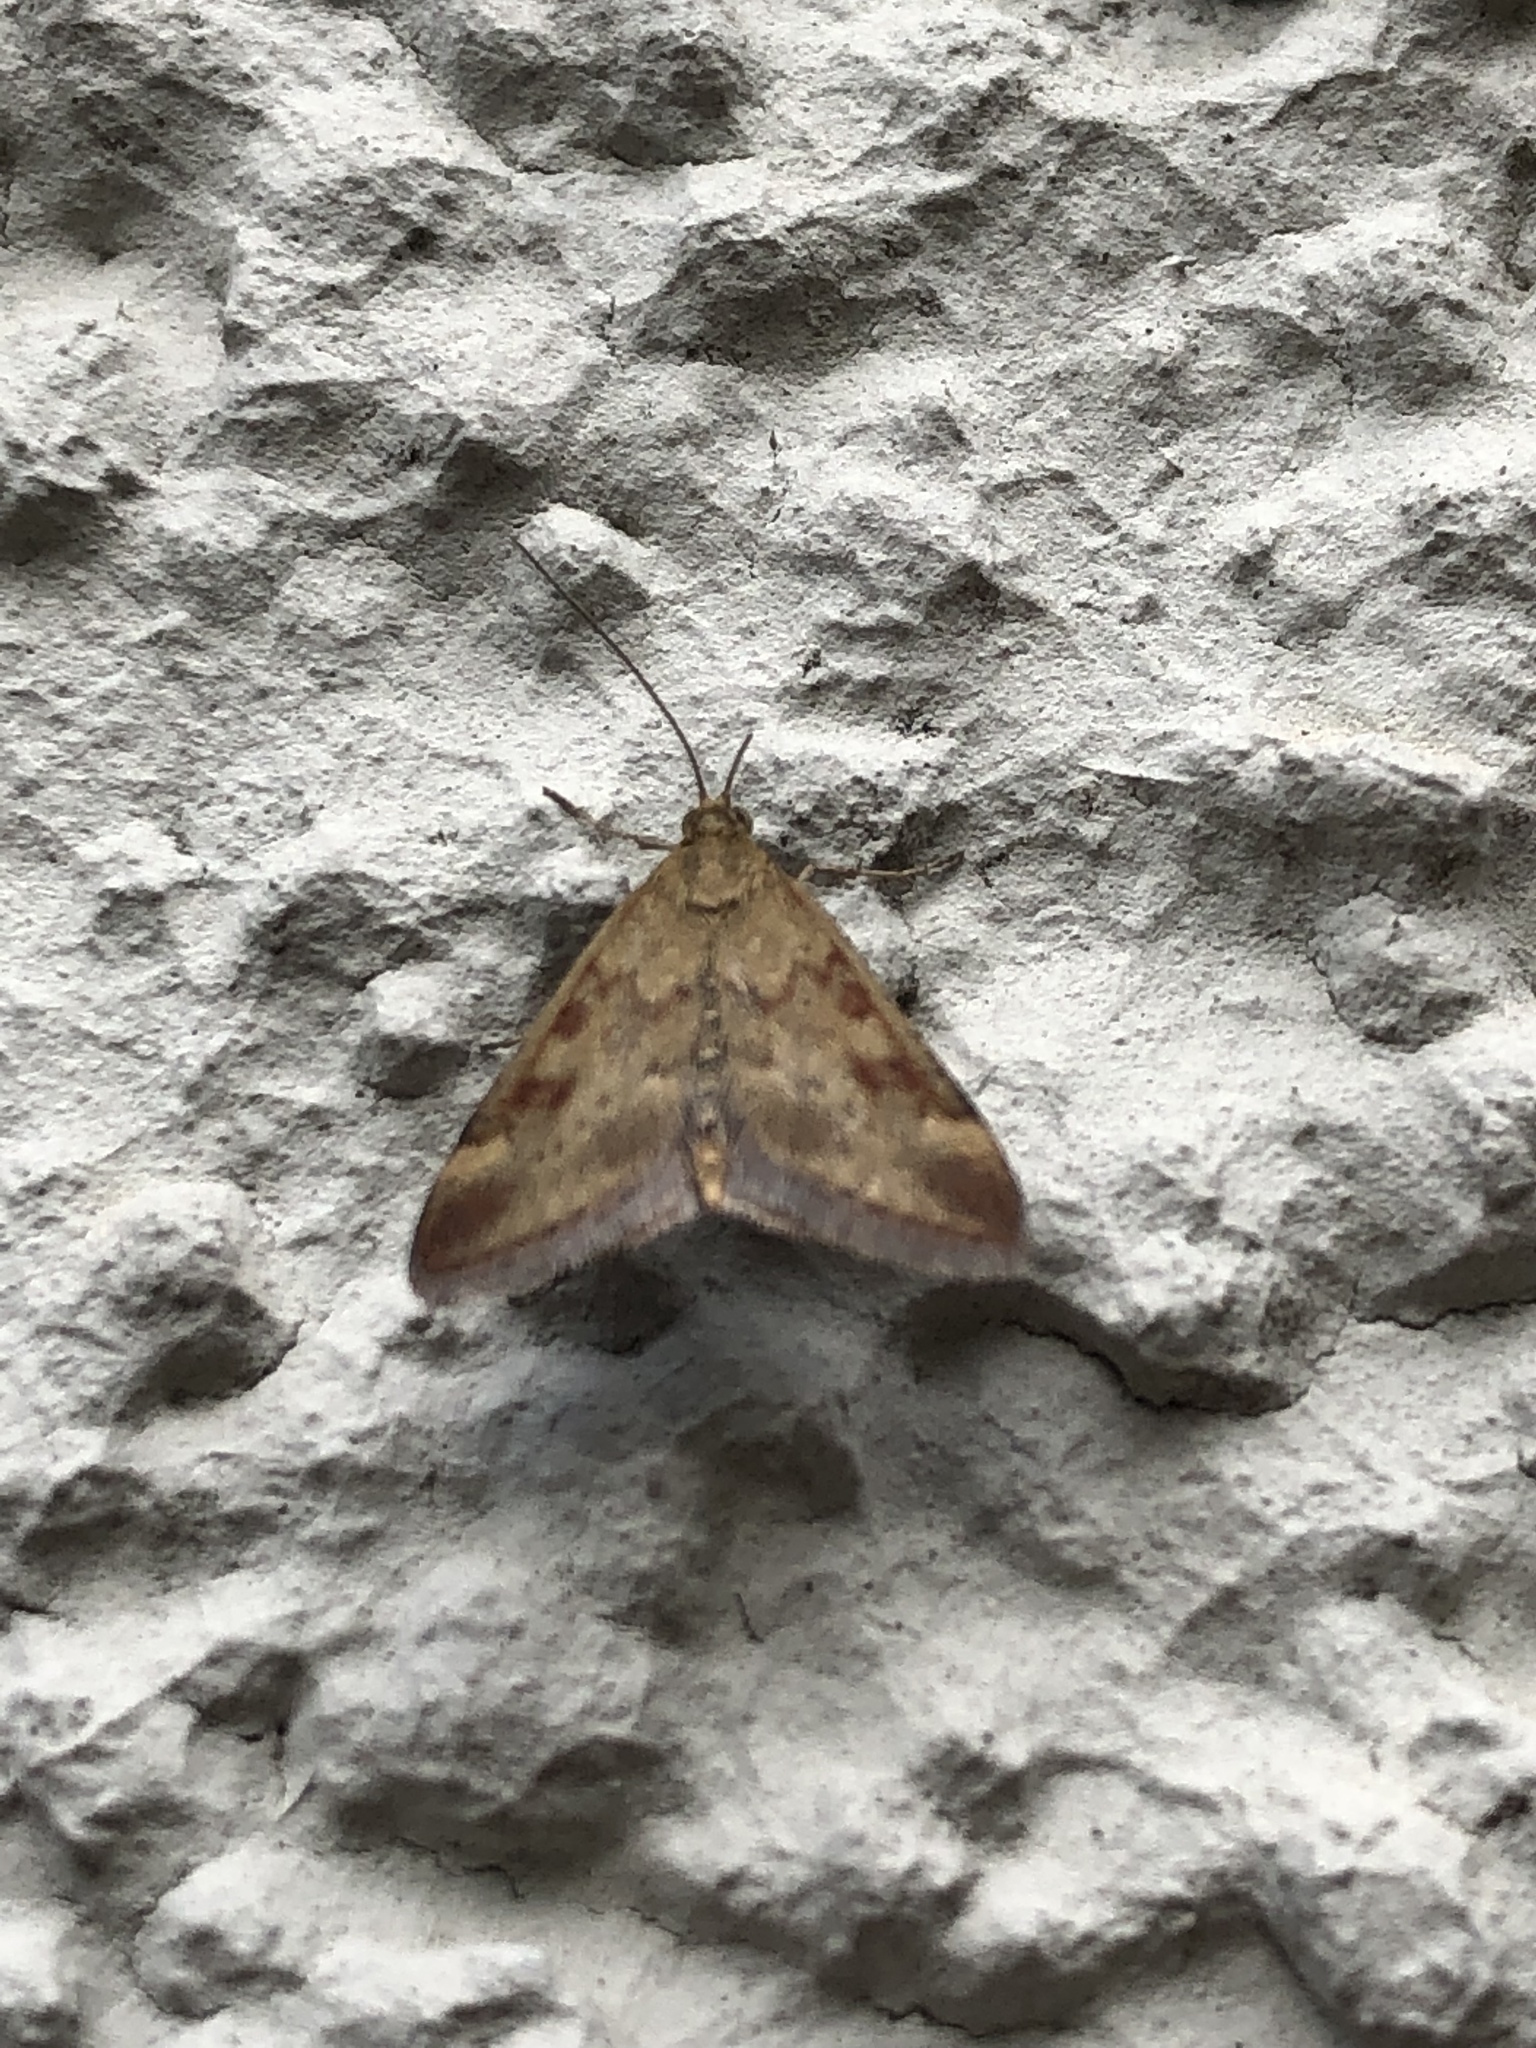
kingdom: Animalia
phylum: Arthropoda
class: Insecta
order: Lepidoptera
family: Crambidae
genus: Pyrausta
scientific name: Pyrausta despicata
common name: Straw-barred pearl
